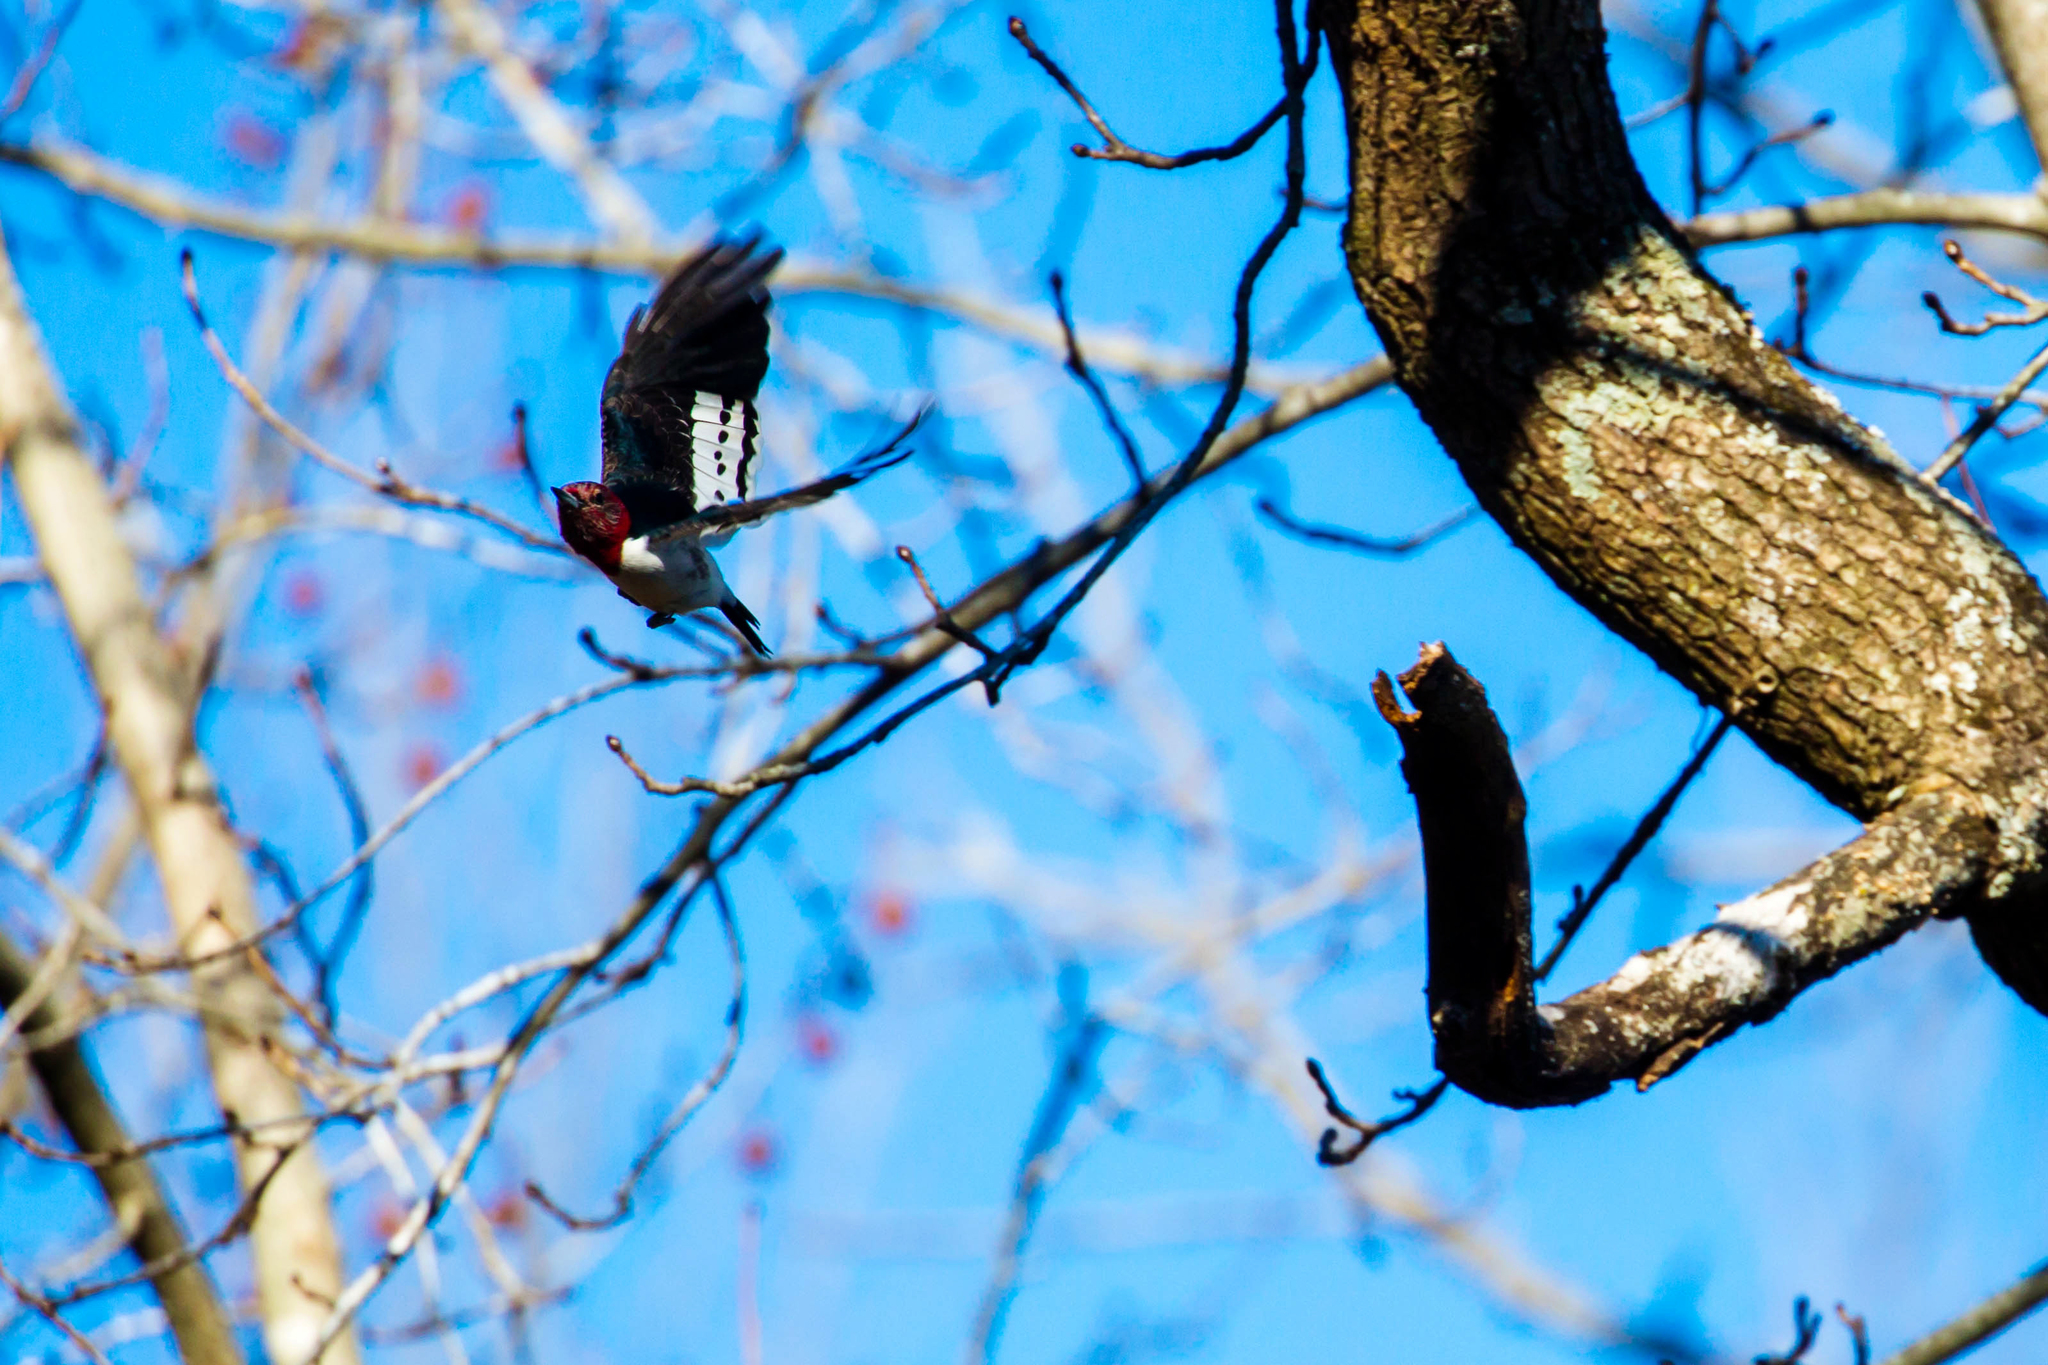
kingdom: Animalia
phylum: Chordata
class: Aves
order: Piciformes
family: Picidae
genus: Melanerpes
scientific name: Melanerpes erythrocephalus
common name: Red-headed woodpecker
